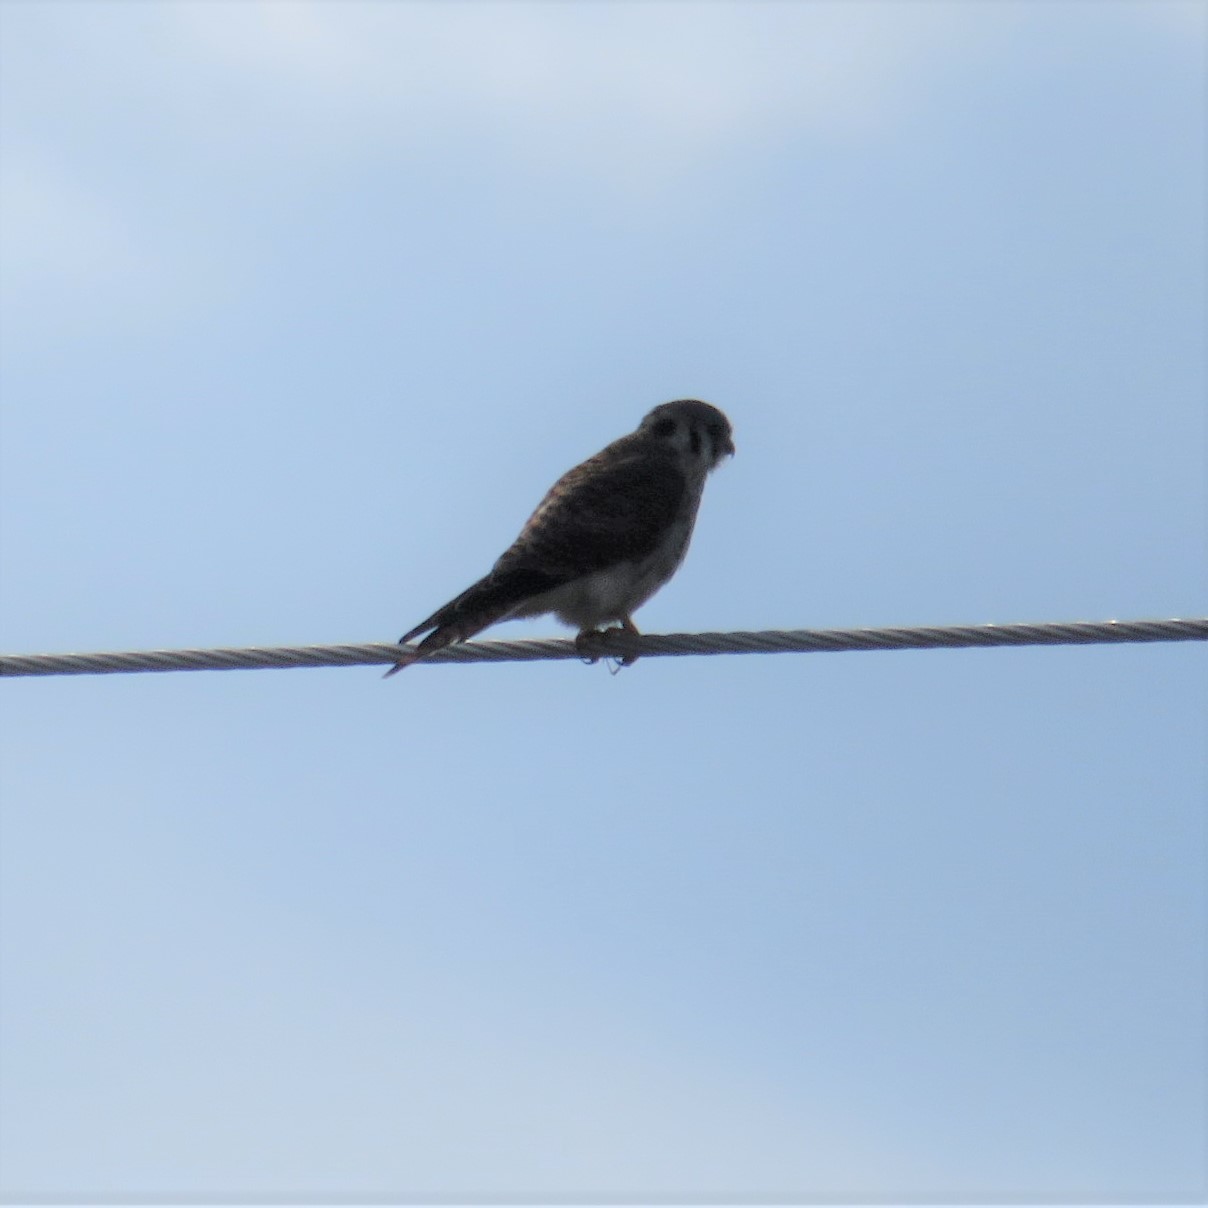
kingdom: Animalia
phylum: Chordata
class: Aves
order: Falconiformes
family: Falconidae
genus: Falco
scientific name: Falco sparverius
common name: American kestrel
